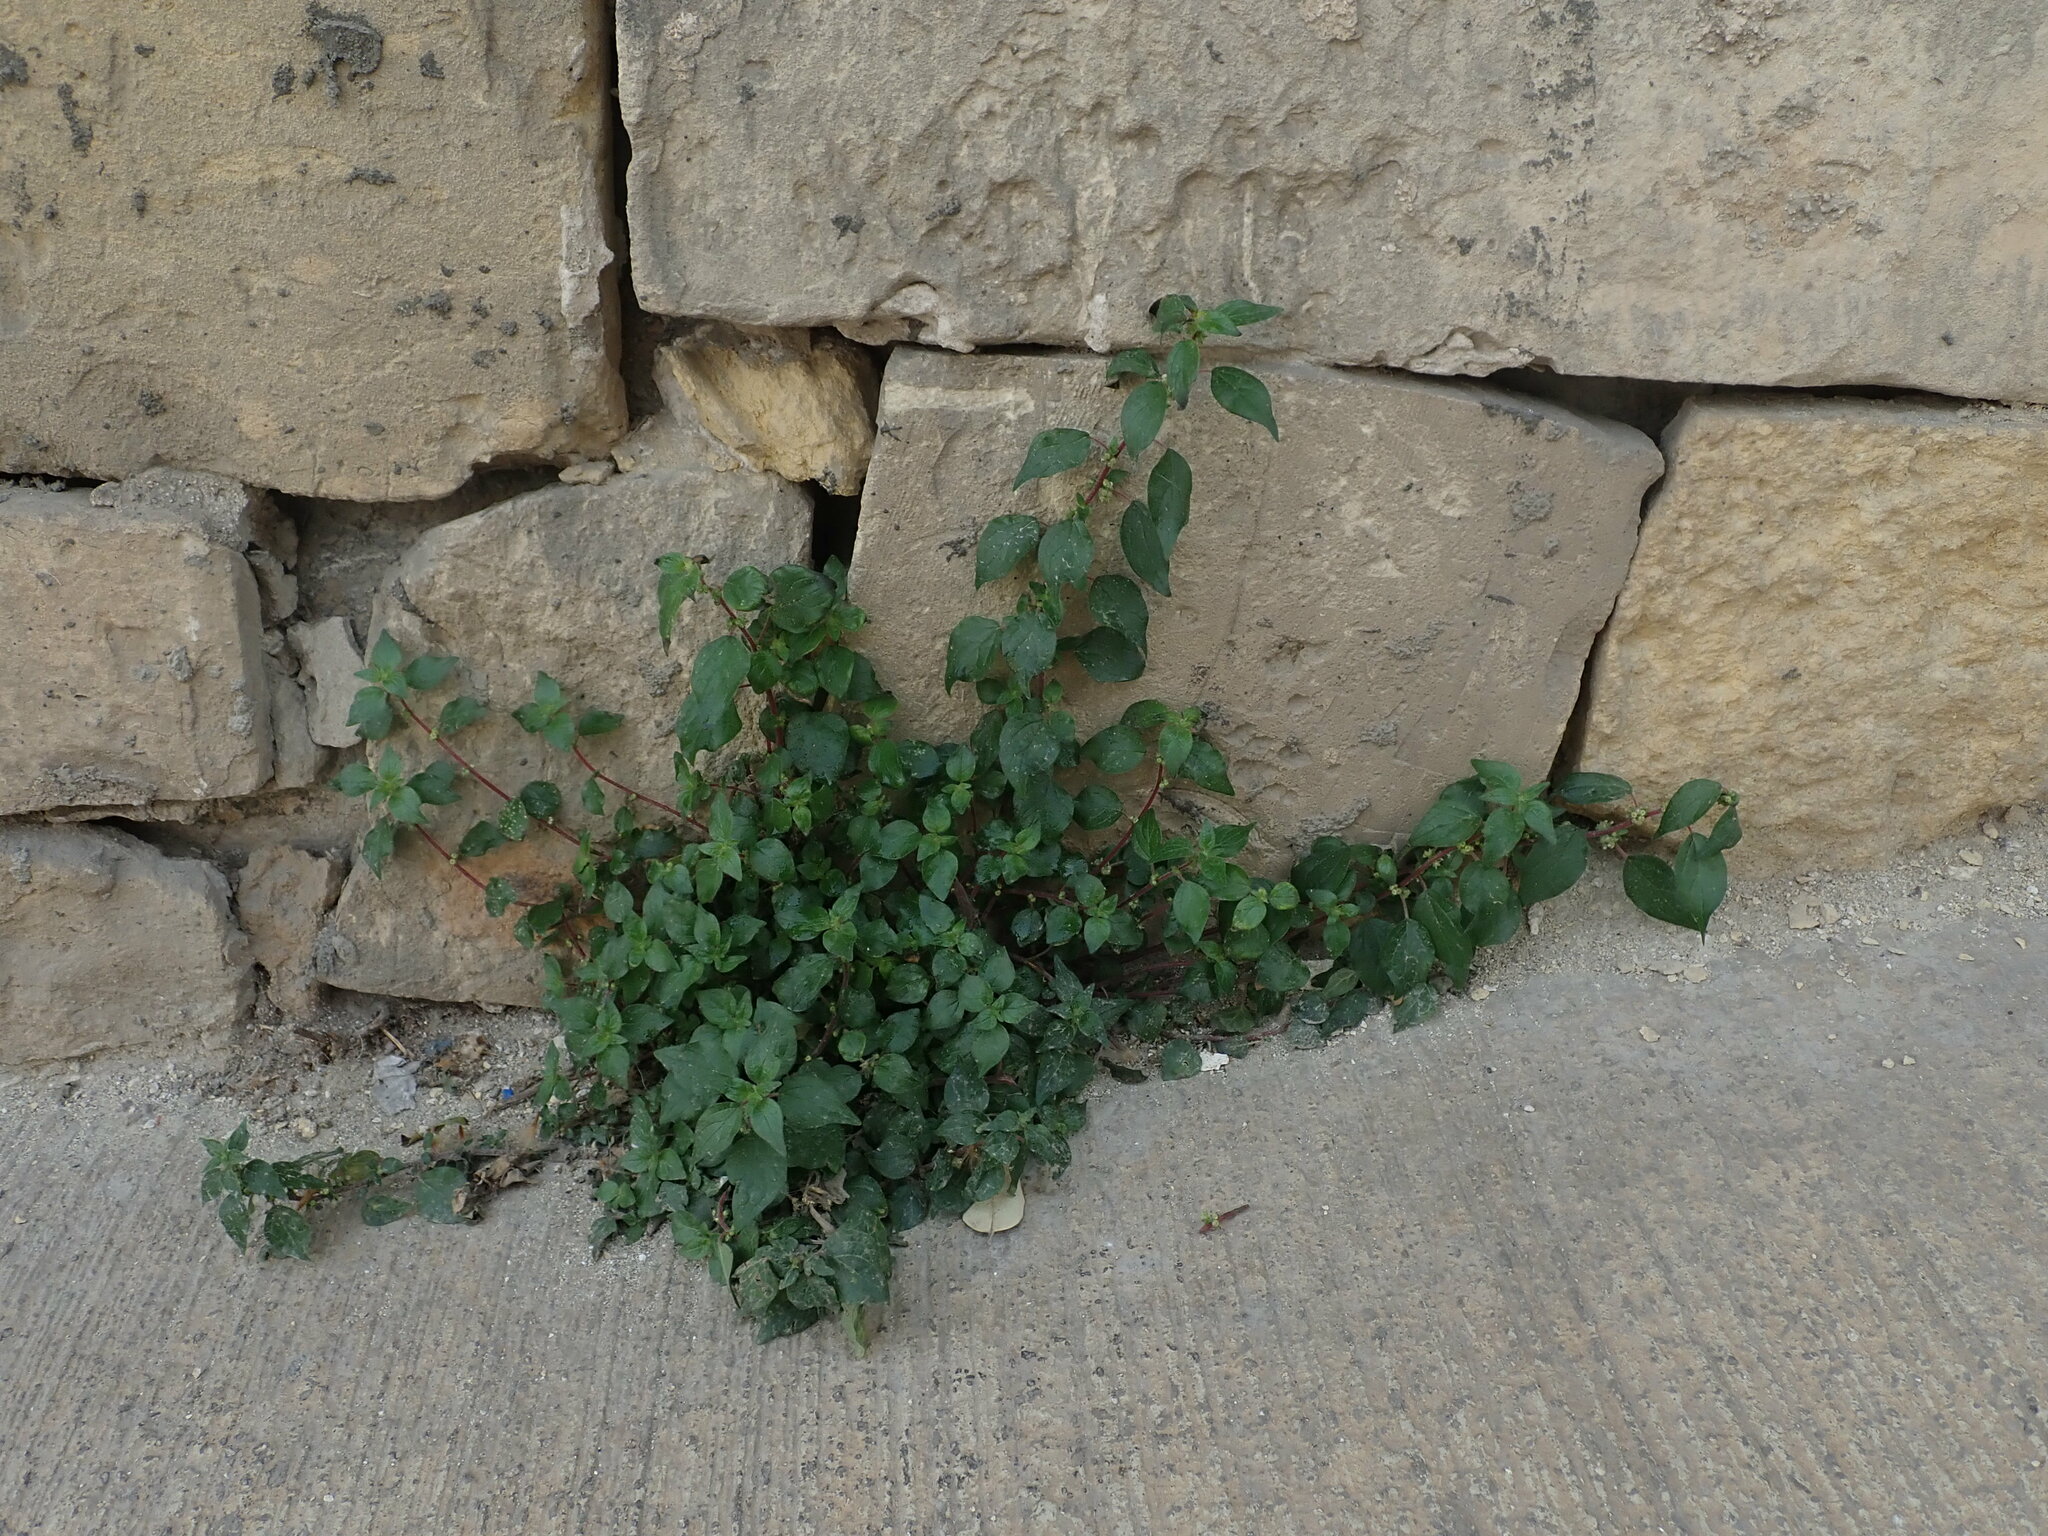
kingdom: Plantae
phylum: Tracheophyta
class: Magnoliopsida
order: Rosales
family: Urticaceae
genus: Parietaria
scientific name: Parietaria judaica
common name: Pellitory-of-the-wall
